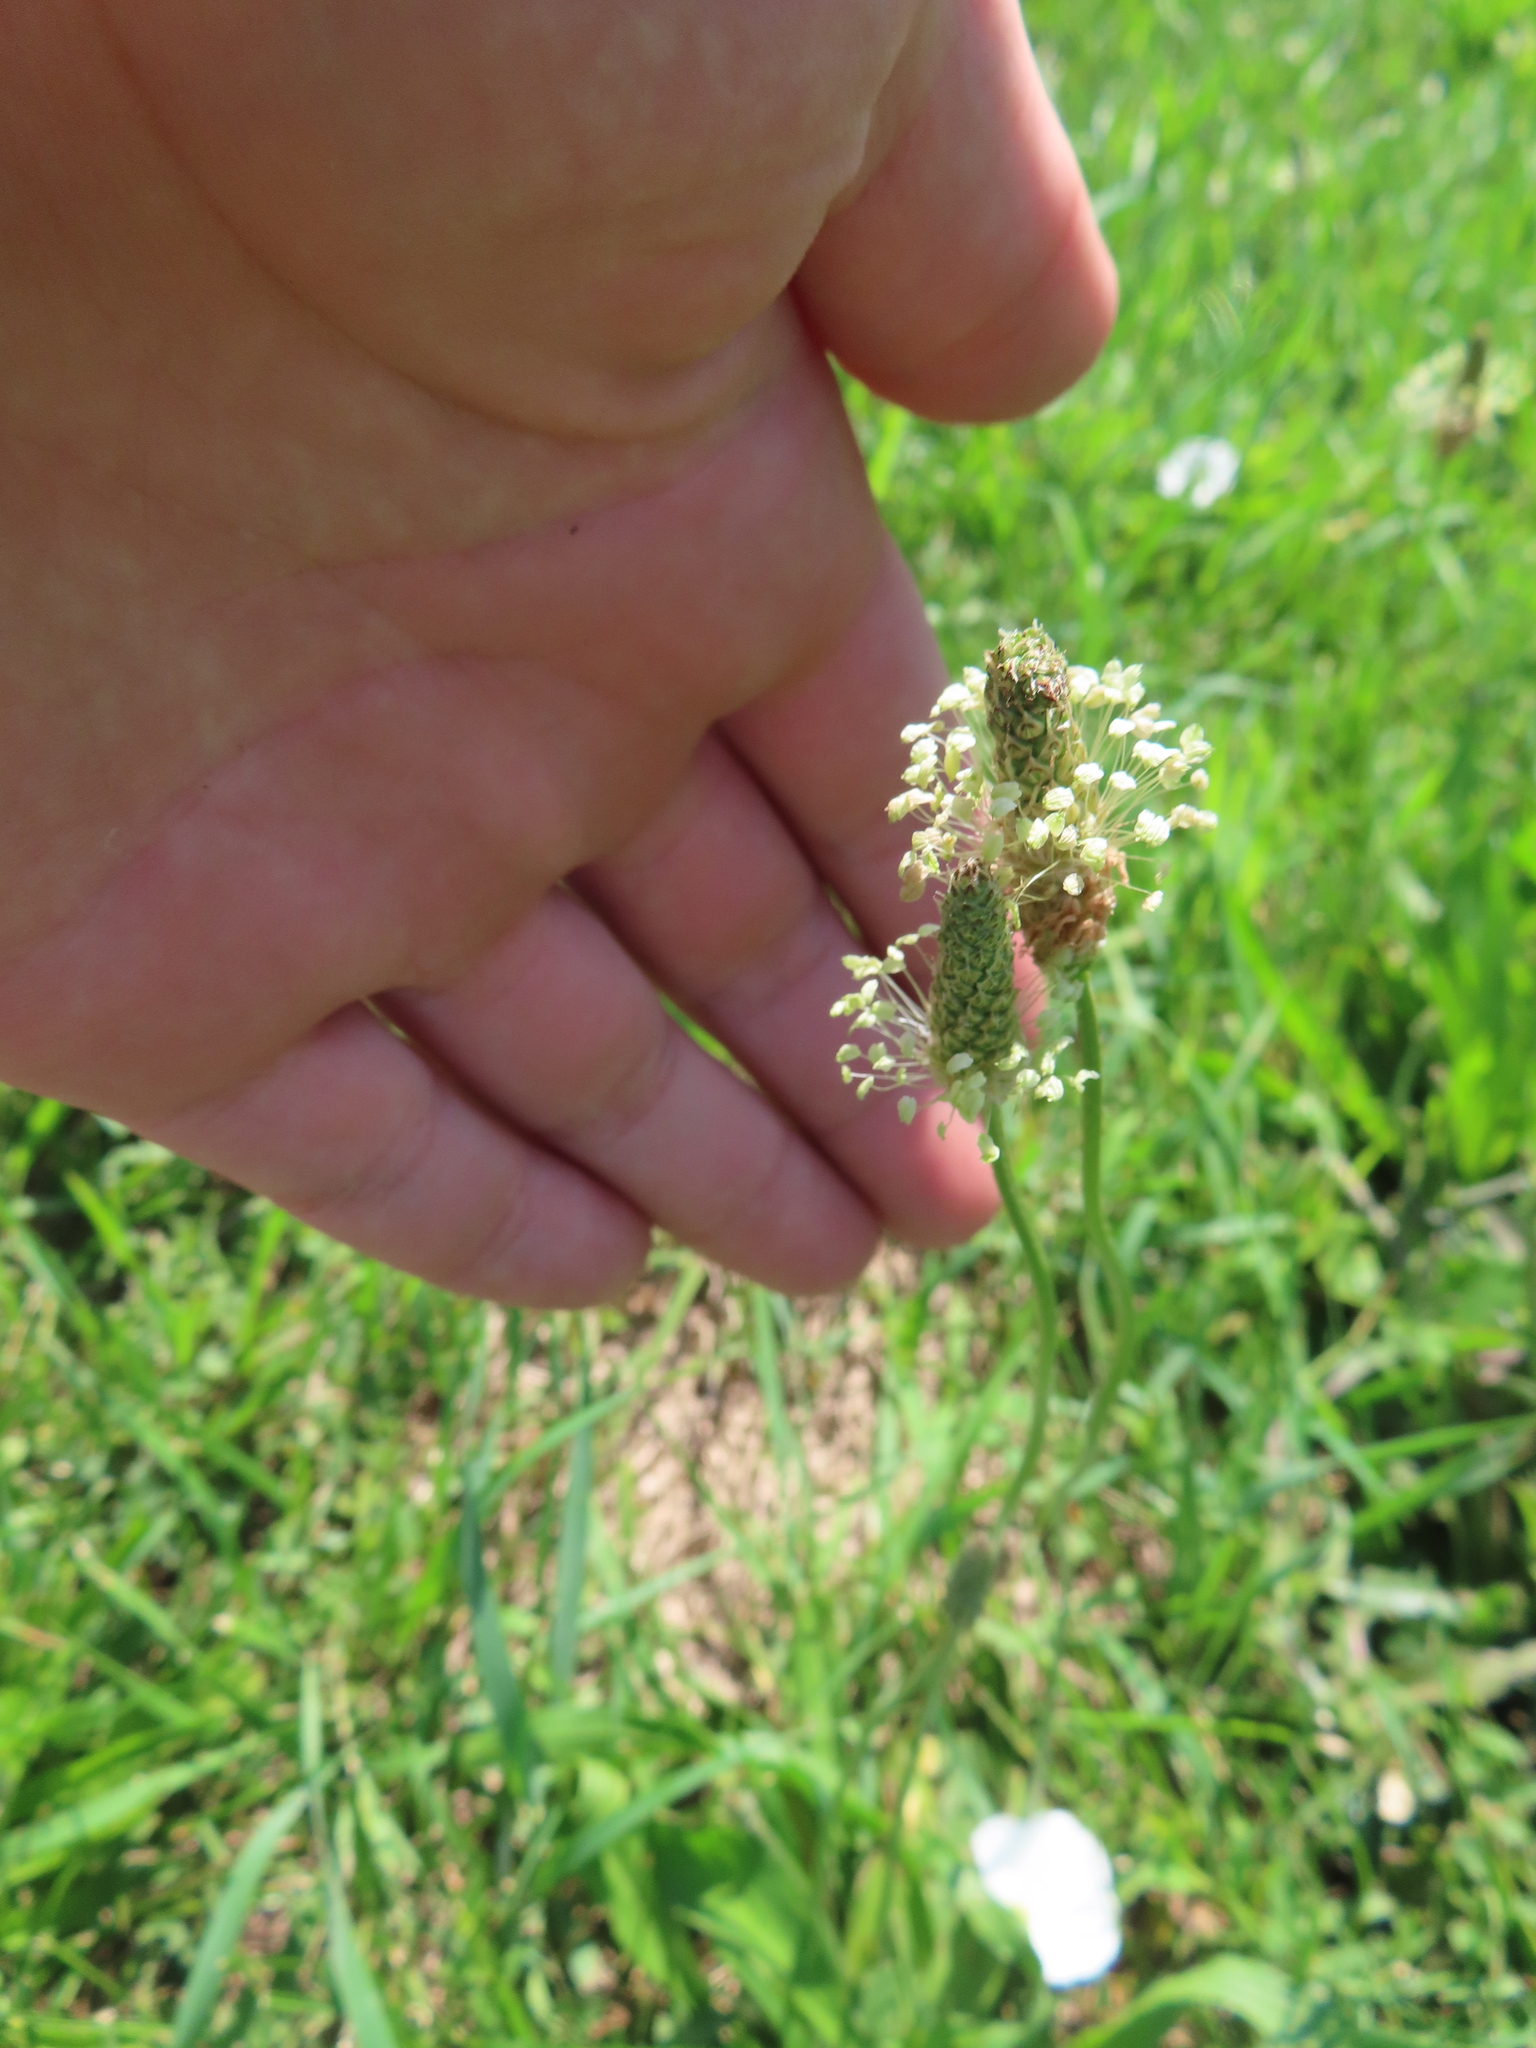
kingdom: Plantae
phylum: Tracheophyta
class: Magnoliopsida
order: Lamiales
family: Plantaginaceae
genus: Plantago
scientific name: Plantago lanceolata
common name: Ribwort plantain
